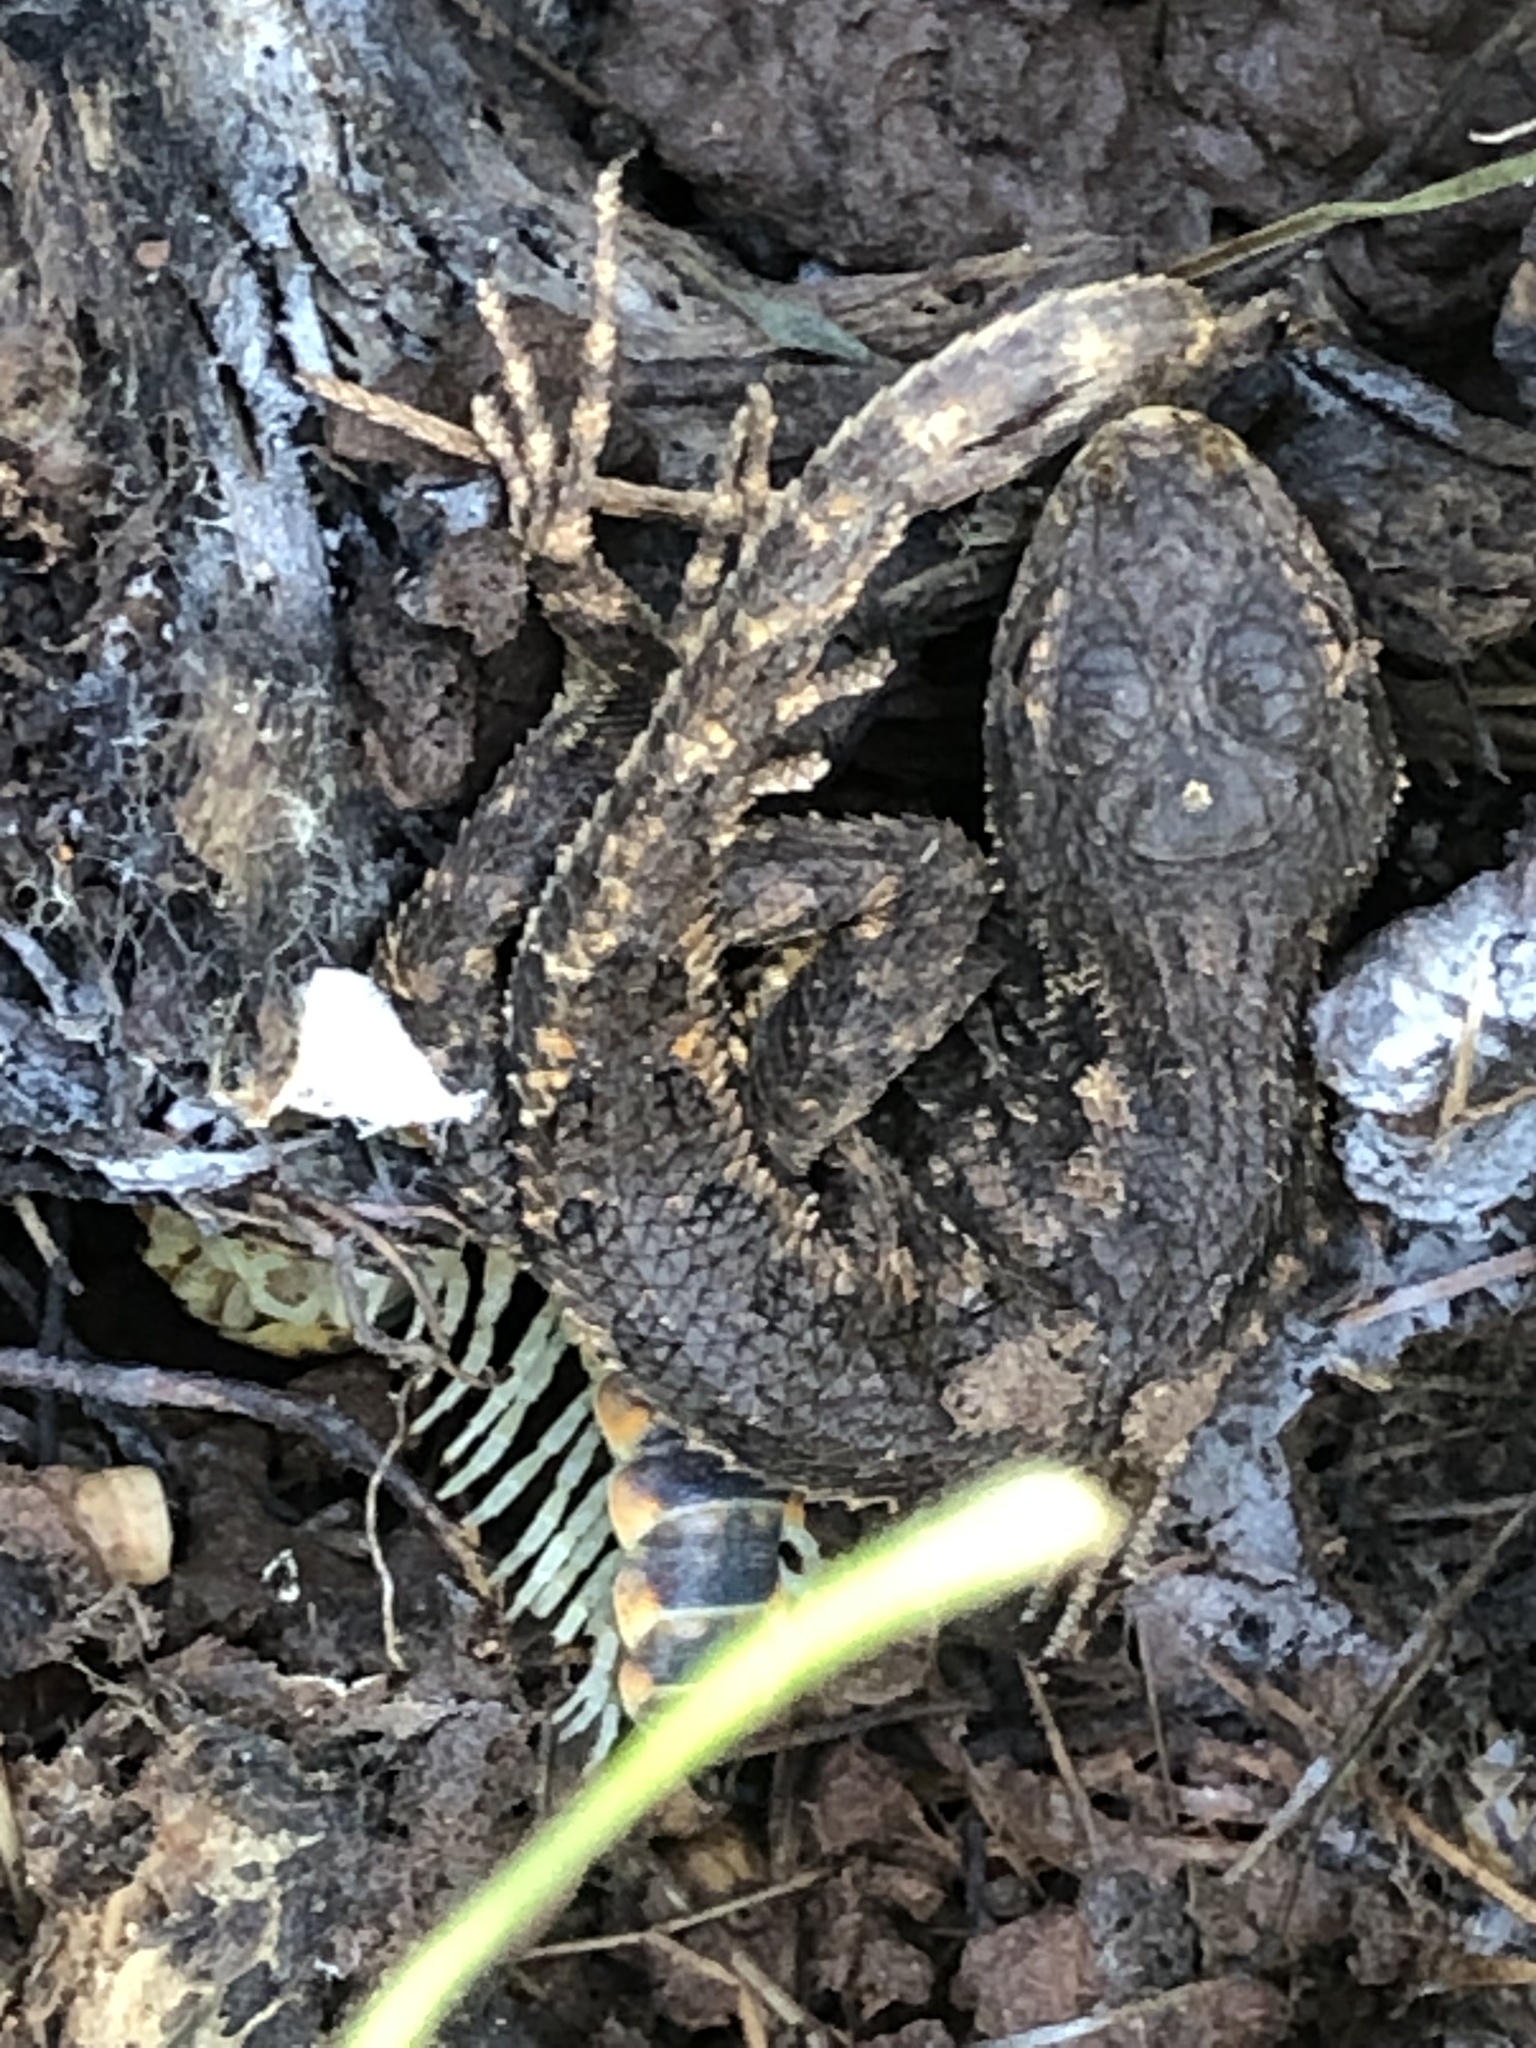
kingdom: Animalia
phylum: Chordata
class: Squamata
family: Phrynosomatidae
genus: Sceloporus
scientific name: Sceloporus occidentalis
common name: Western fence lizard
